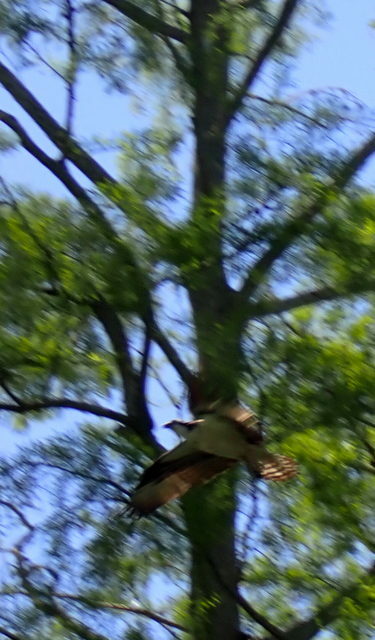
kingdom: Animalia
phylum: Chordata
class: Aves
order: Accipitriformes
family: Pandionidae
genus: Pandion
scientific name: Pandion haliaetus
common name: Osprey
